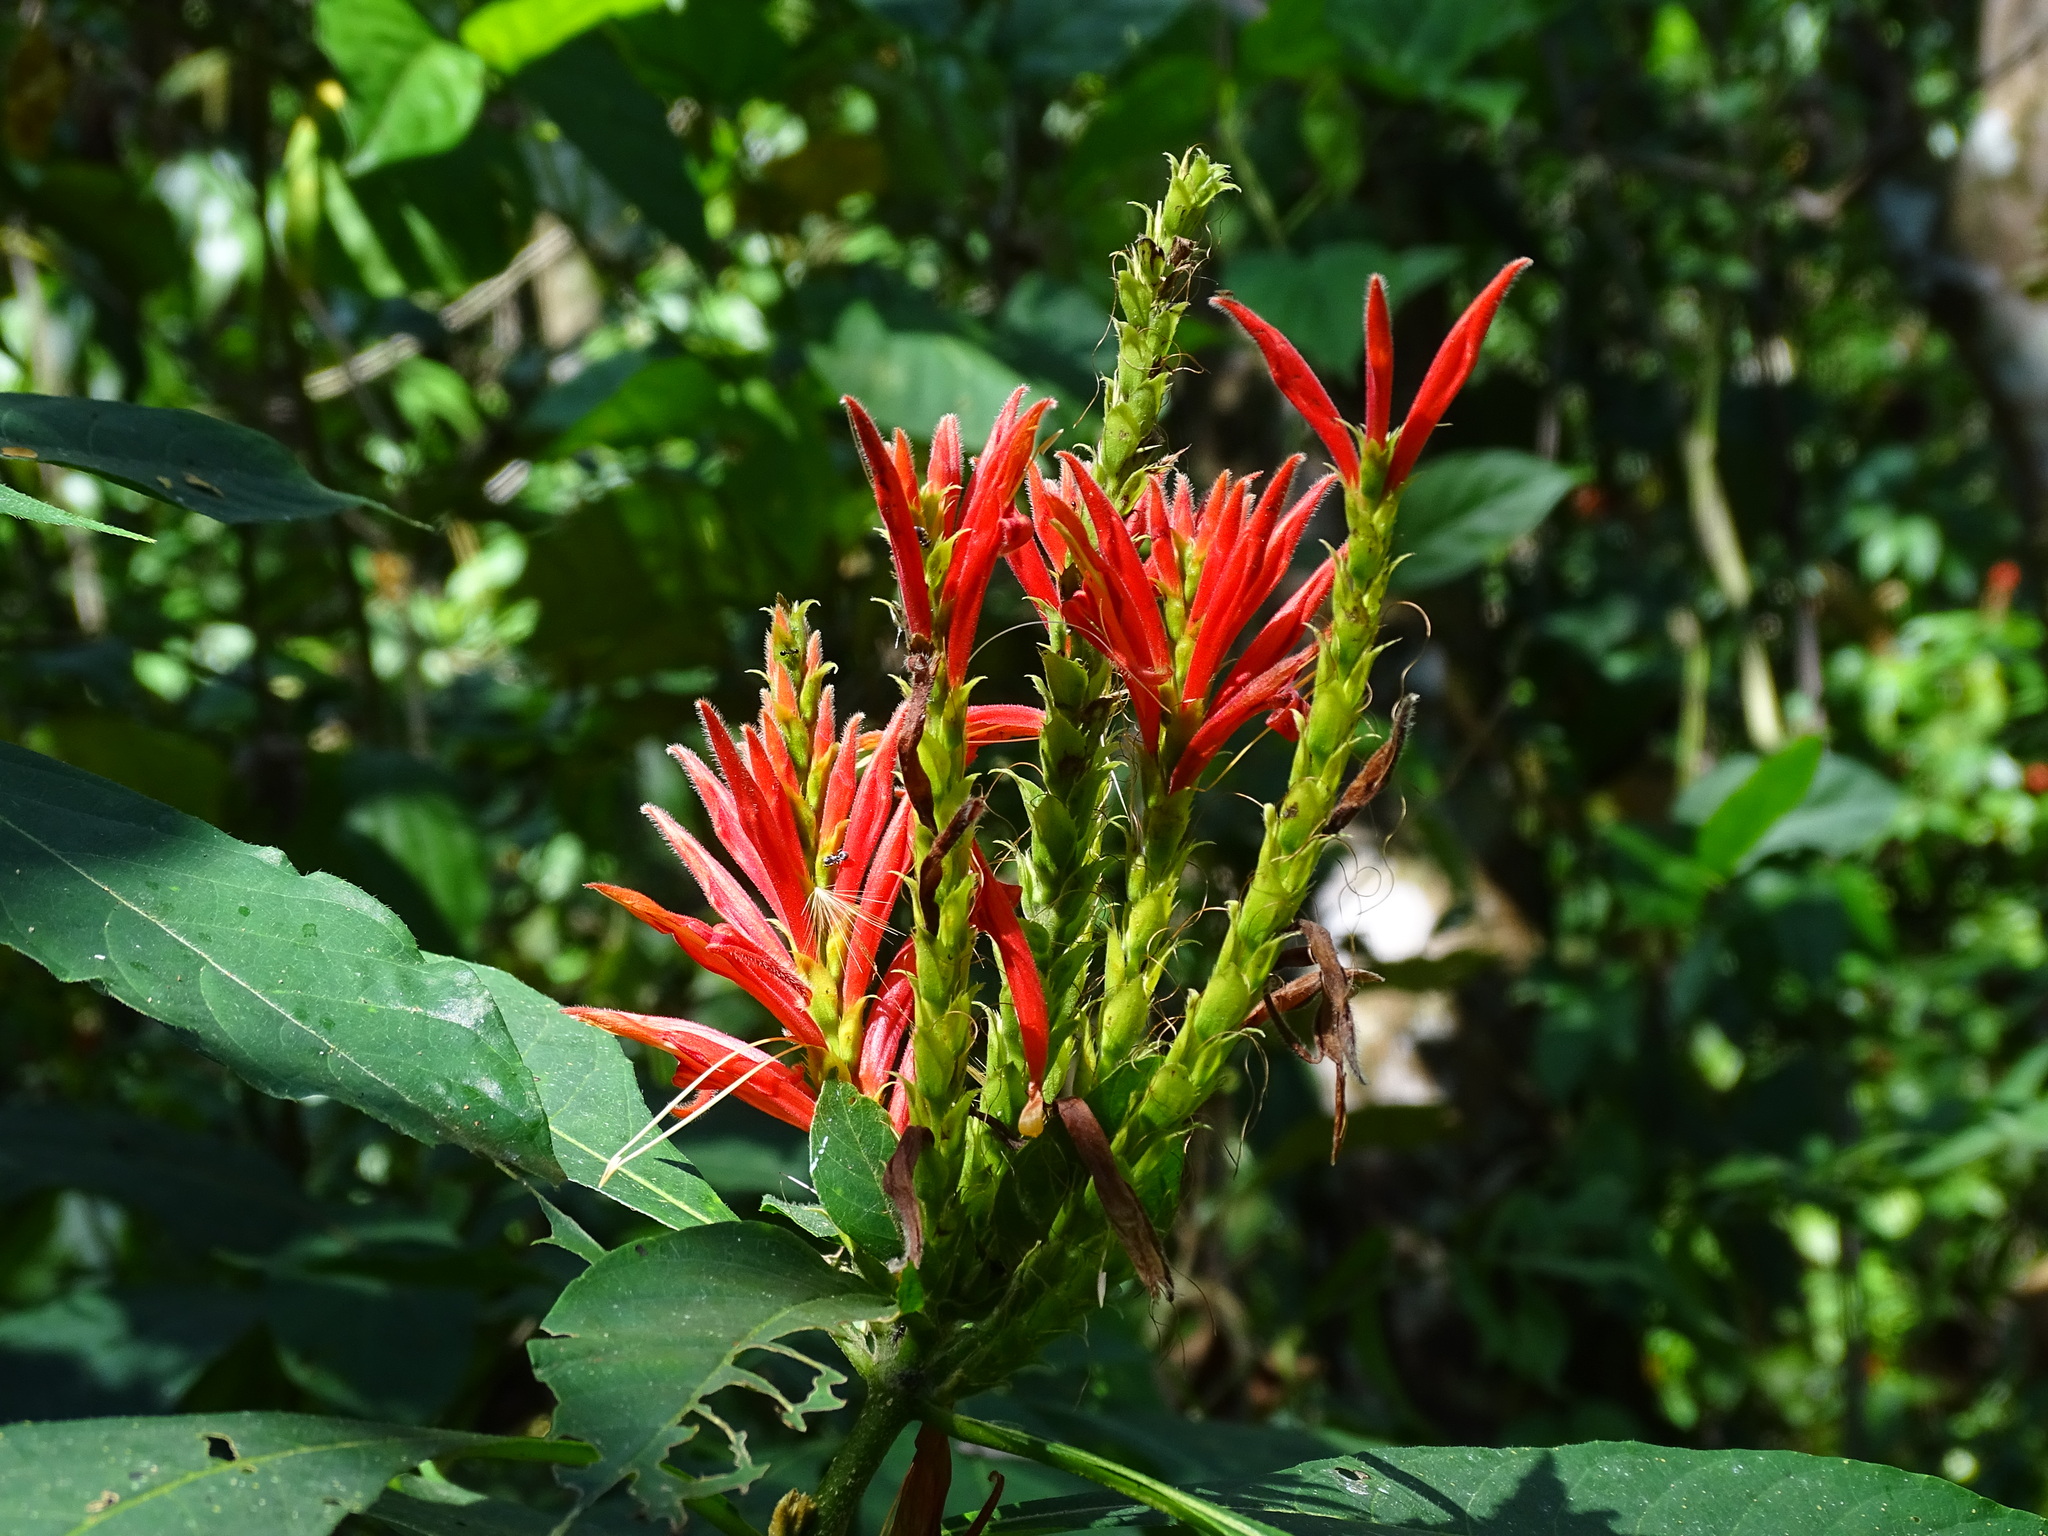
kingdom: Plantae
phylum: Tracheophyta
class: Magnoliopsida
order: Lamiales
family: Acanthaceae
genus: Aphelandra
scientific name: Aphelandra scabra
